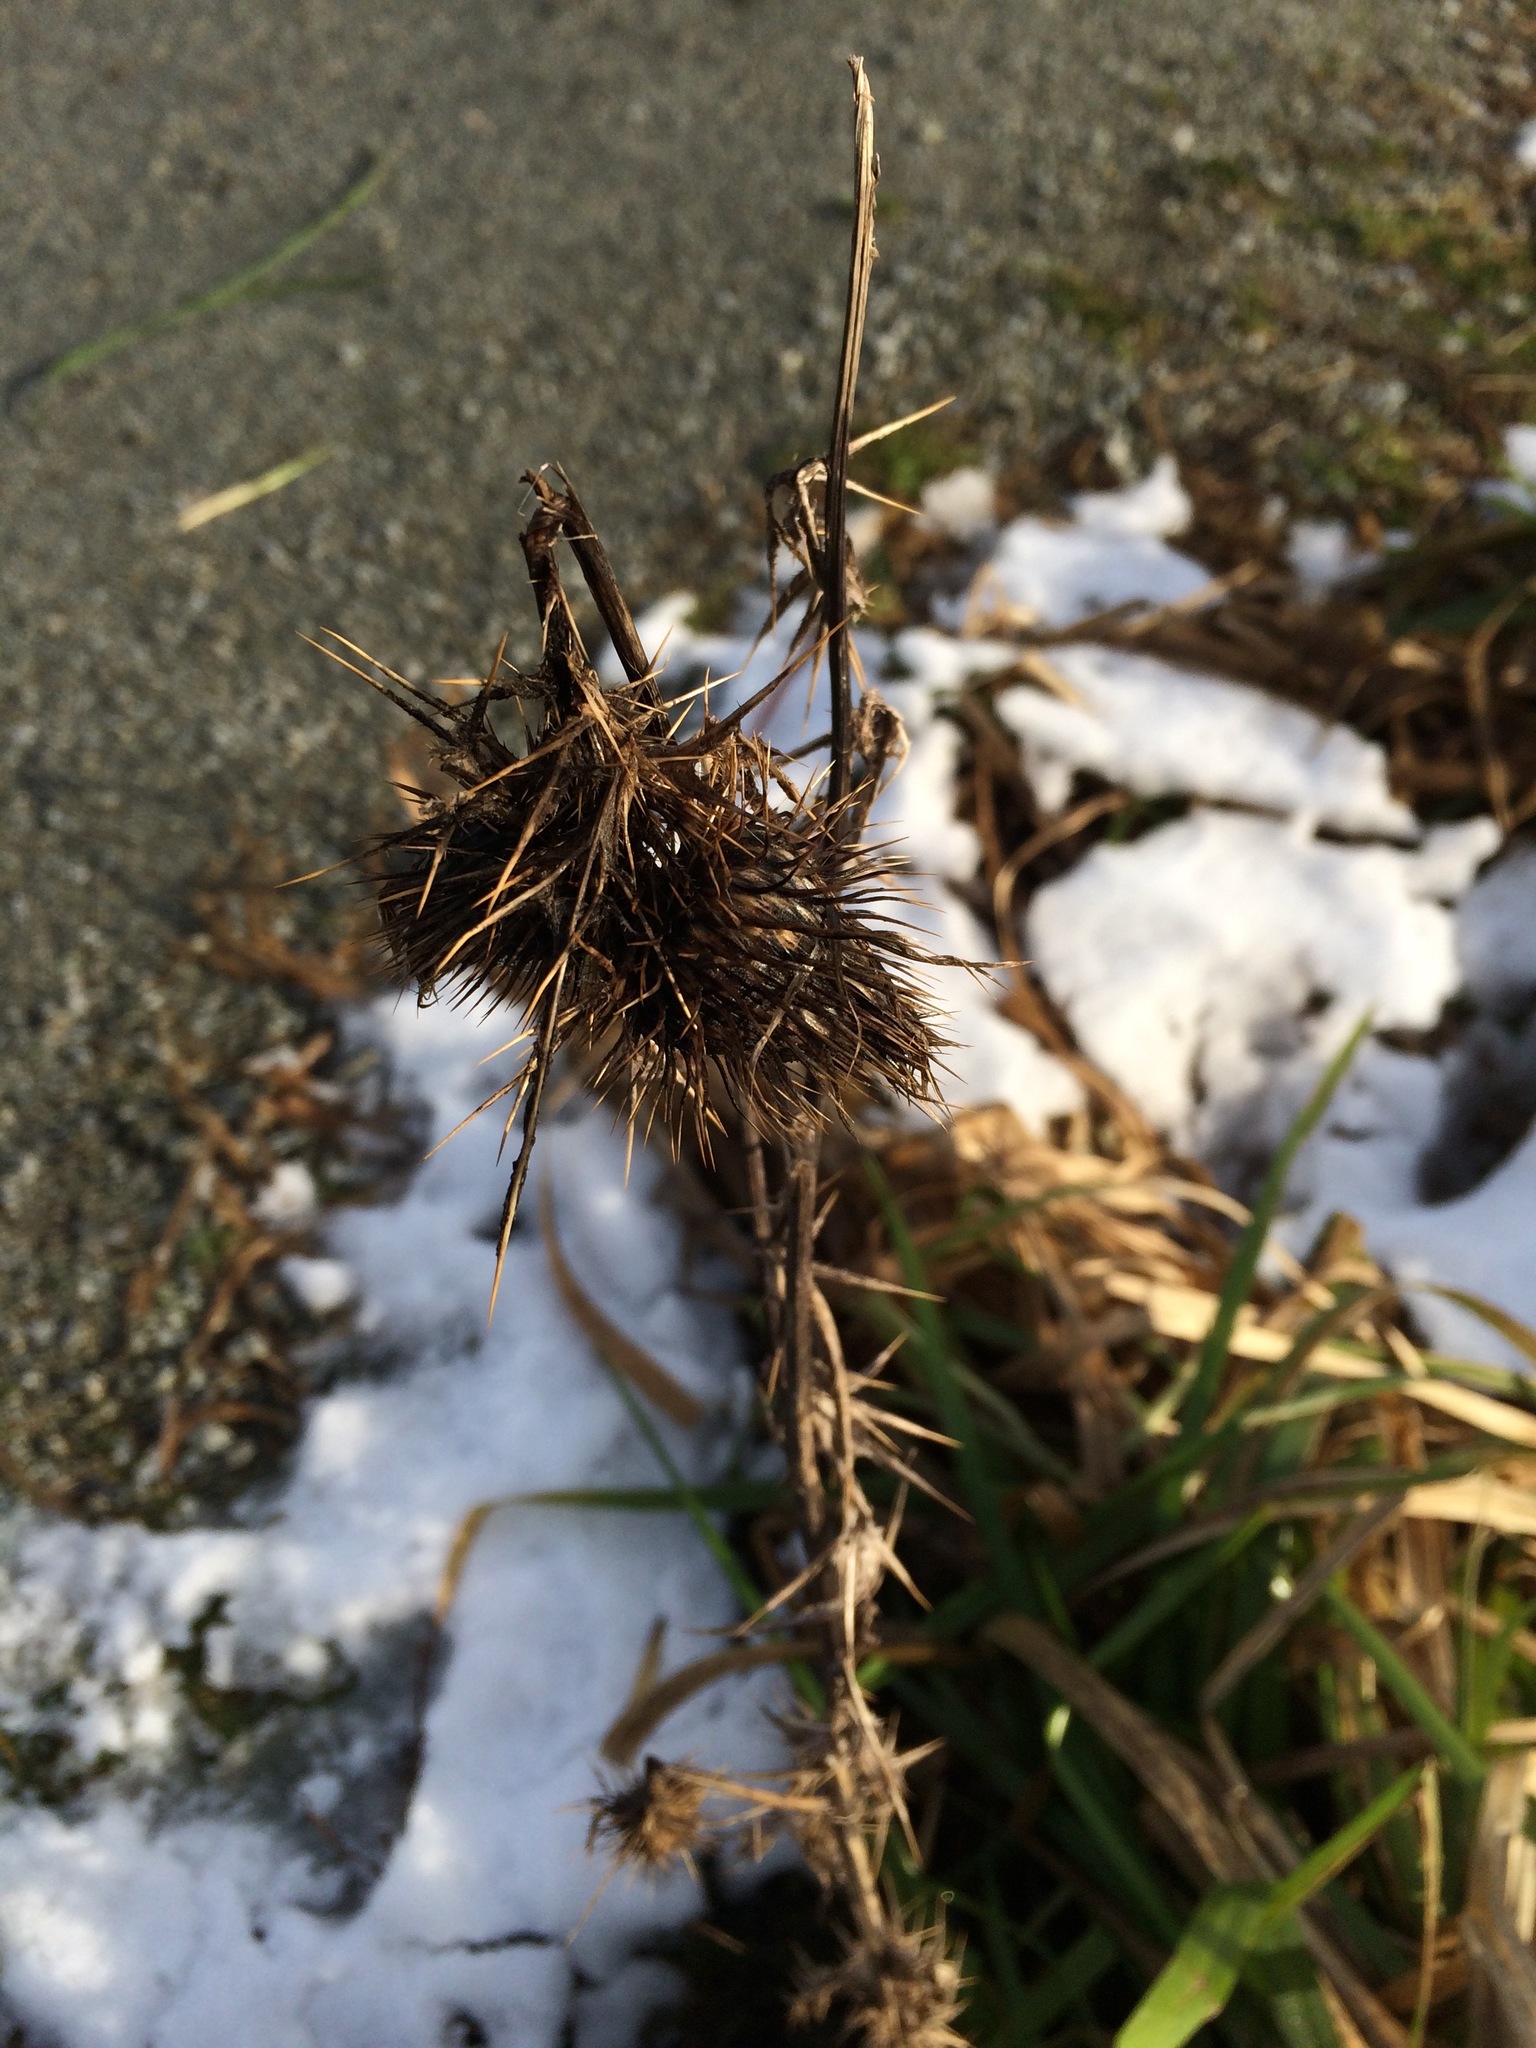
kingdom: Plantae
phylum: Tracheophyta
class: Magnoliopsida
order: Asterales
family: Asteraceae
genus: Cirsium
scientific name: Cirsium vulgare
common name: Bull thistle
